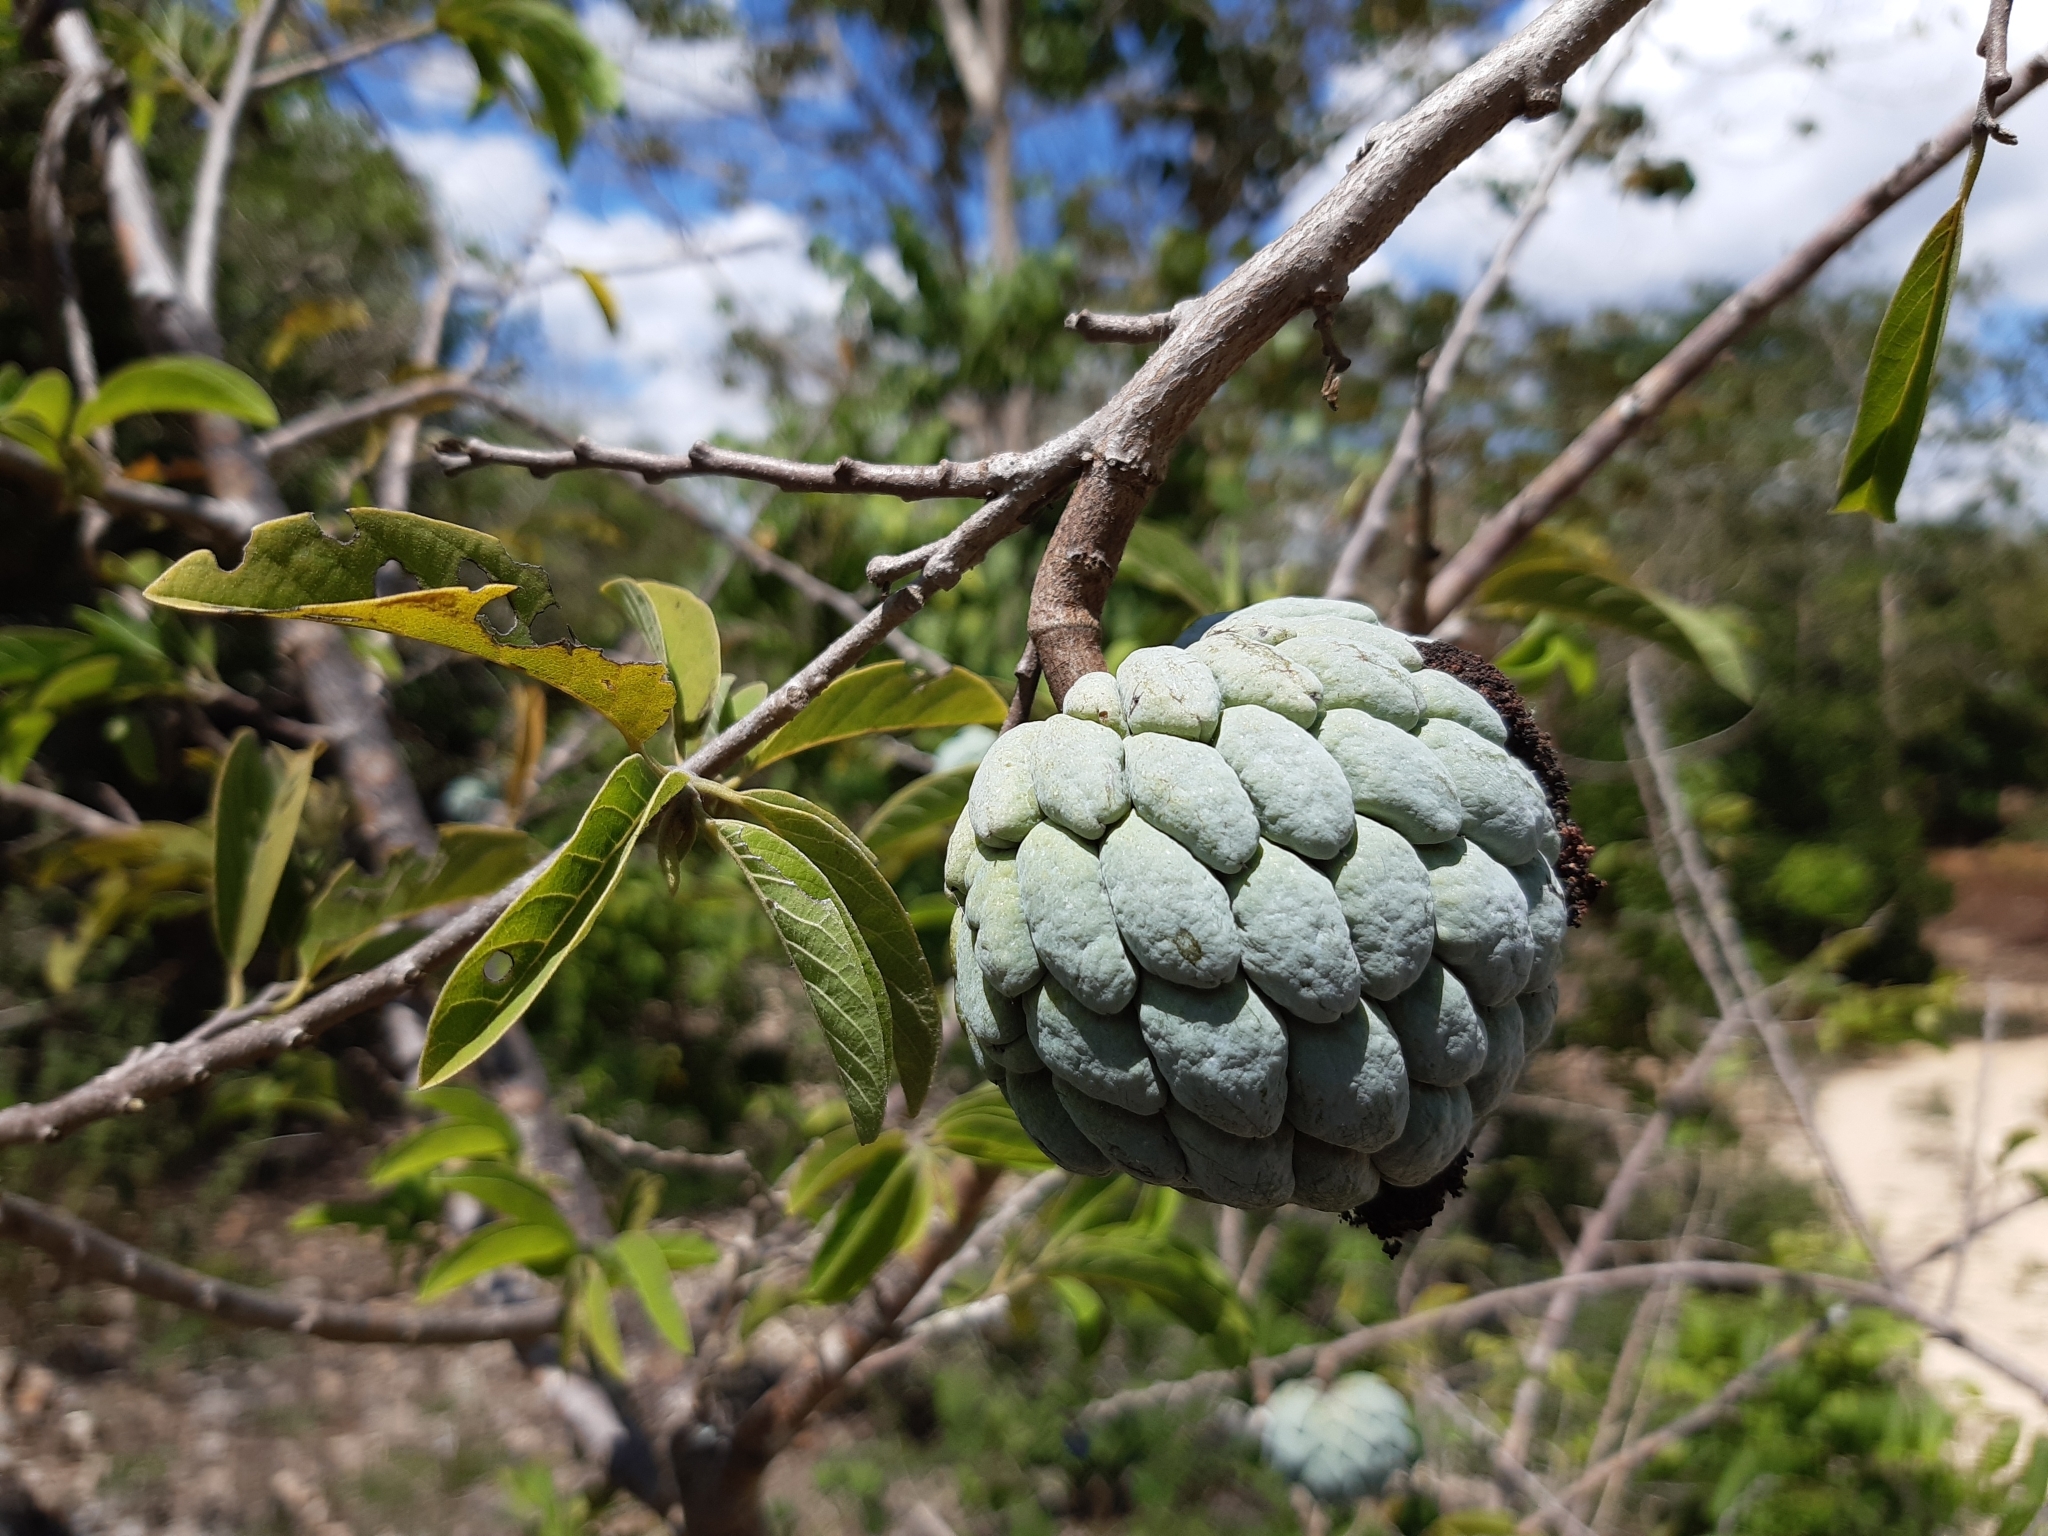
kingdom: Plantae
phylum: Tracheophyta
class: Magnoliopsida
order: Magnoliales
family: Annonaceae
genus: Annona
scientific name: Annona squamosa
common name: Custard-apple
